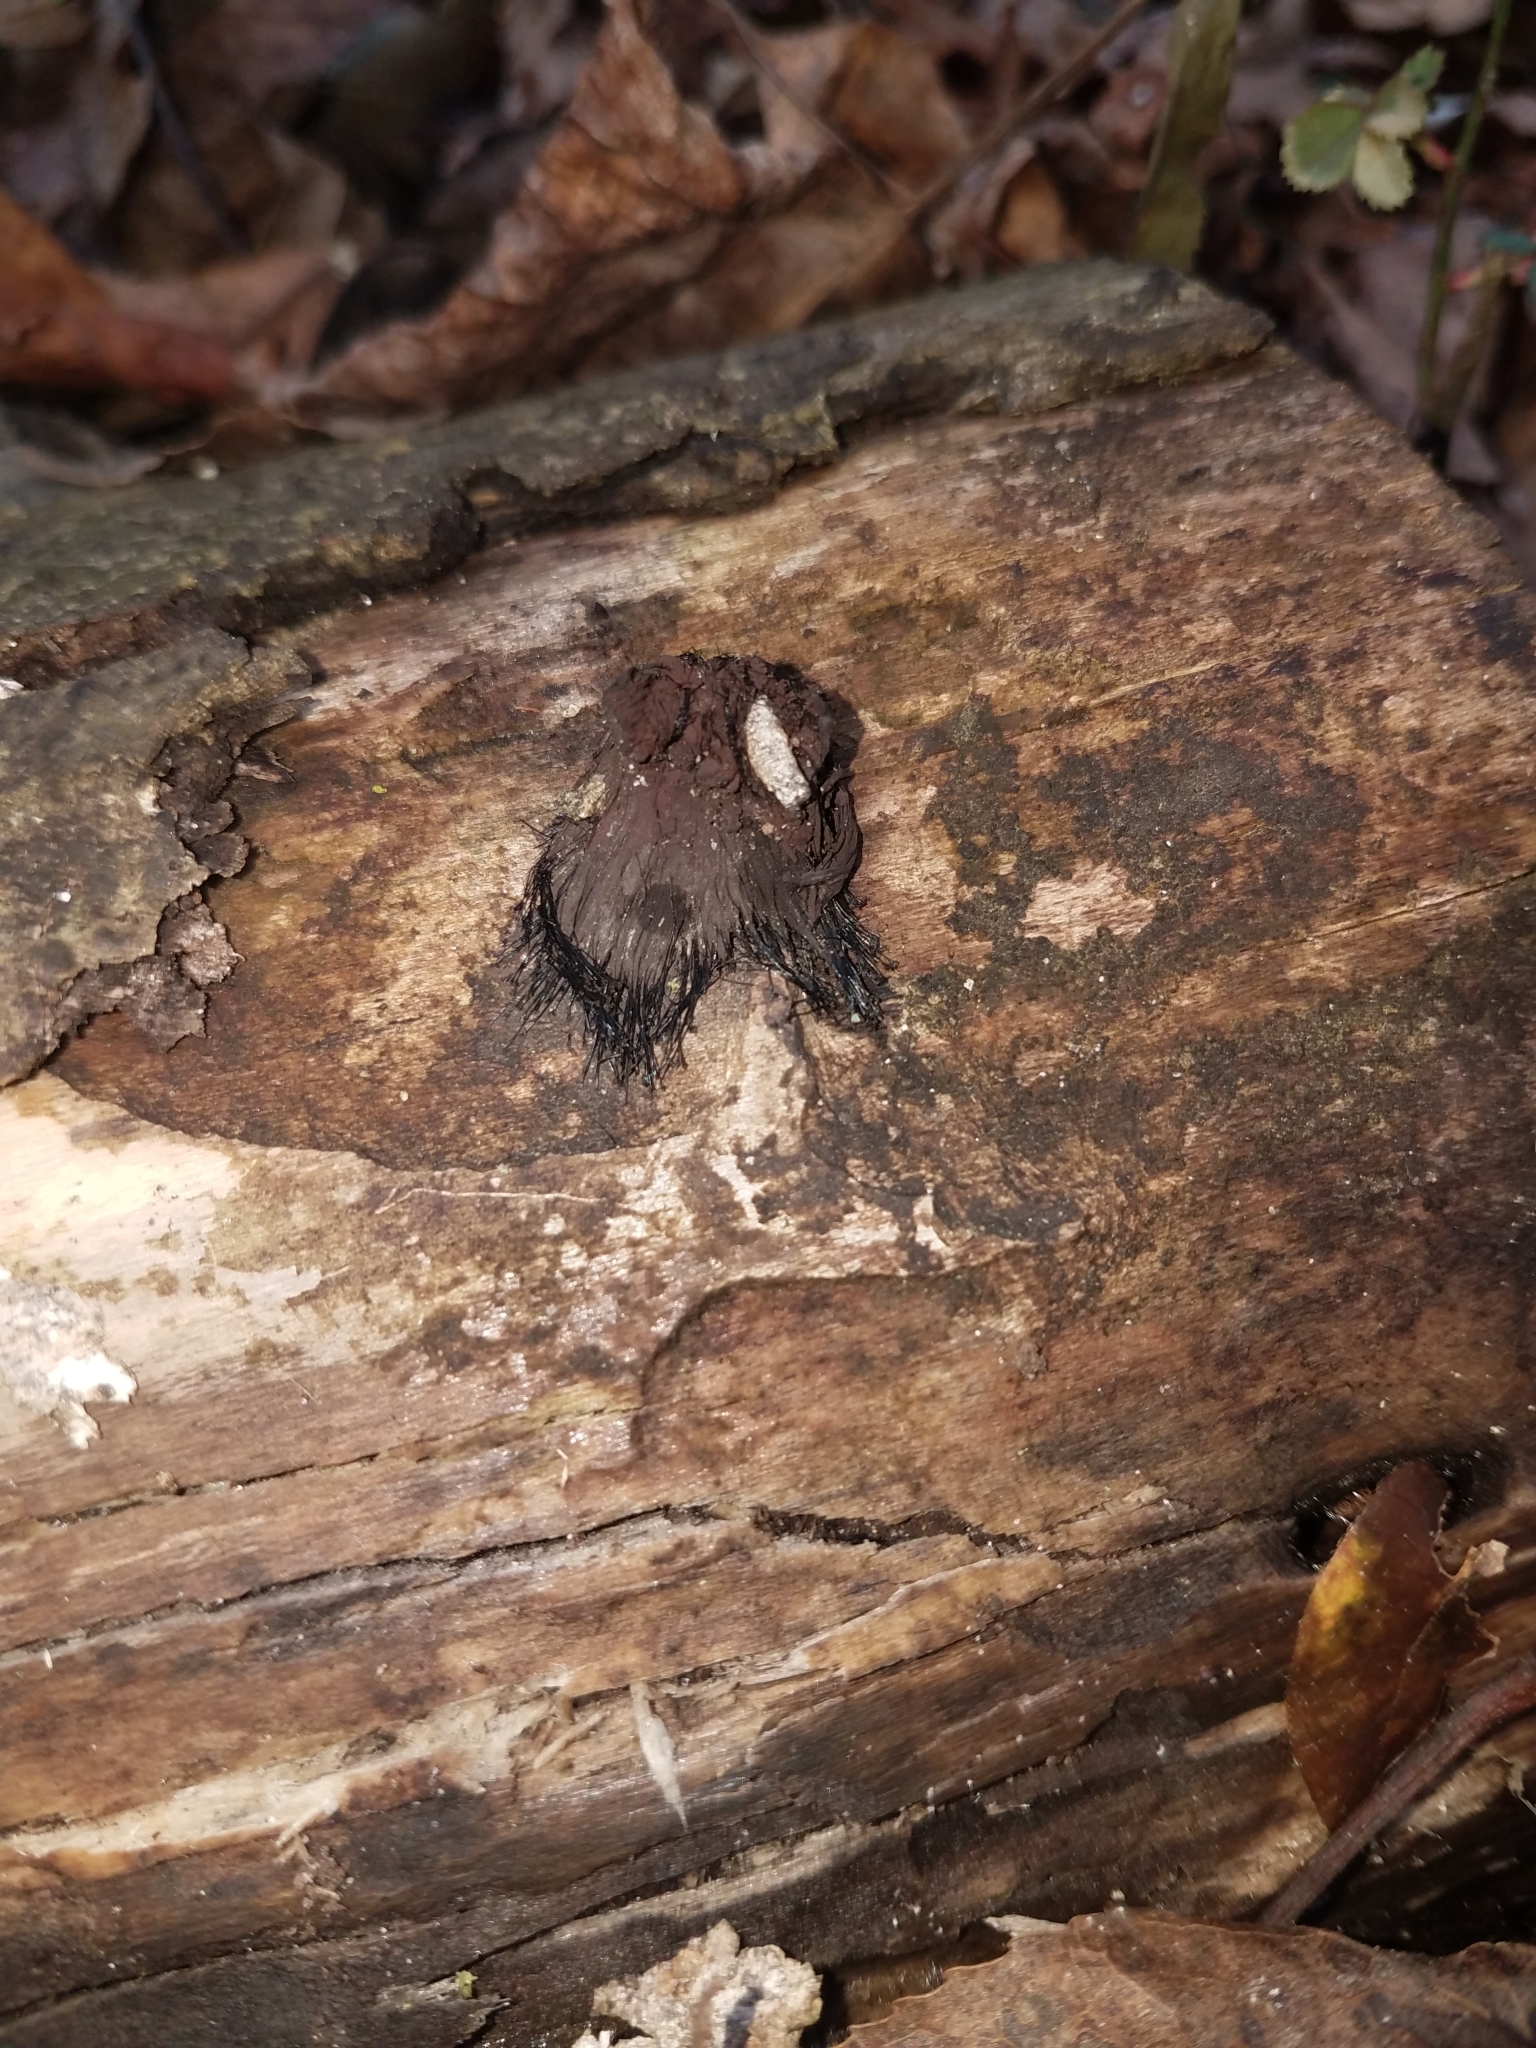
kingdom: Protozoa
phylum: Mycetozoa
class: Myxomycetes
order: Stemonitidales
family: Stemonitidaceae
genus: Stemonitis
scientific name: Stemonitis splendens
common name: Chocolate tube slime
